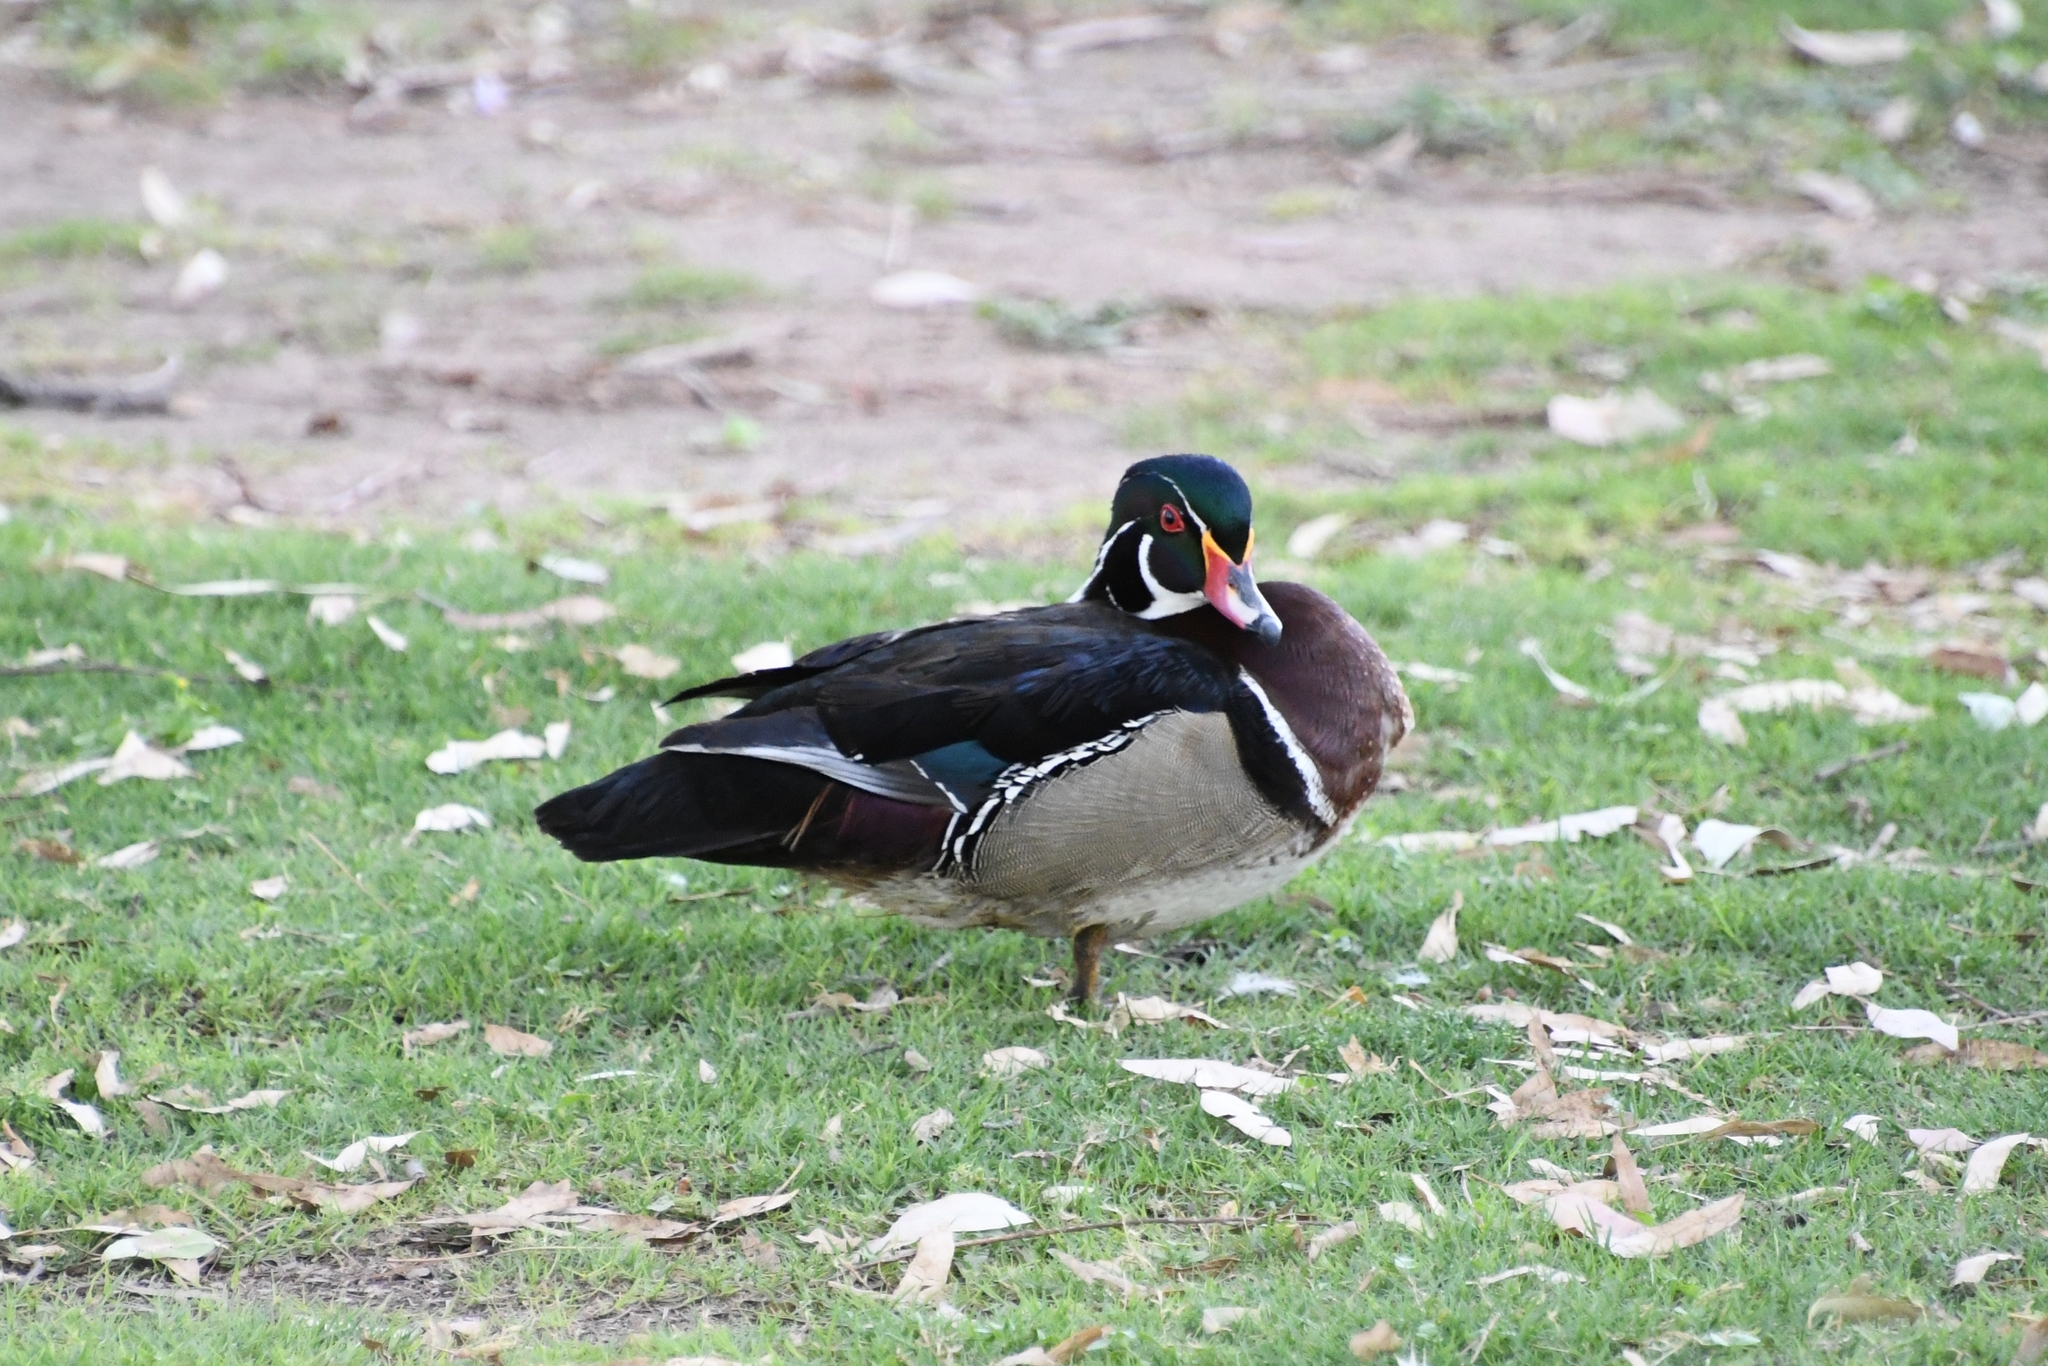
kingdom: Animalia
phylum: Chordata
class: Aves
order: Anseriformes
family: Anatidae
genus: Aix
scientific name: Aix sponsa
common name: Wood duck
